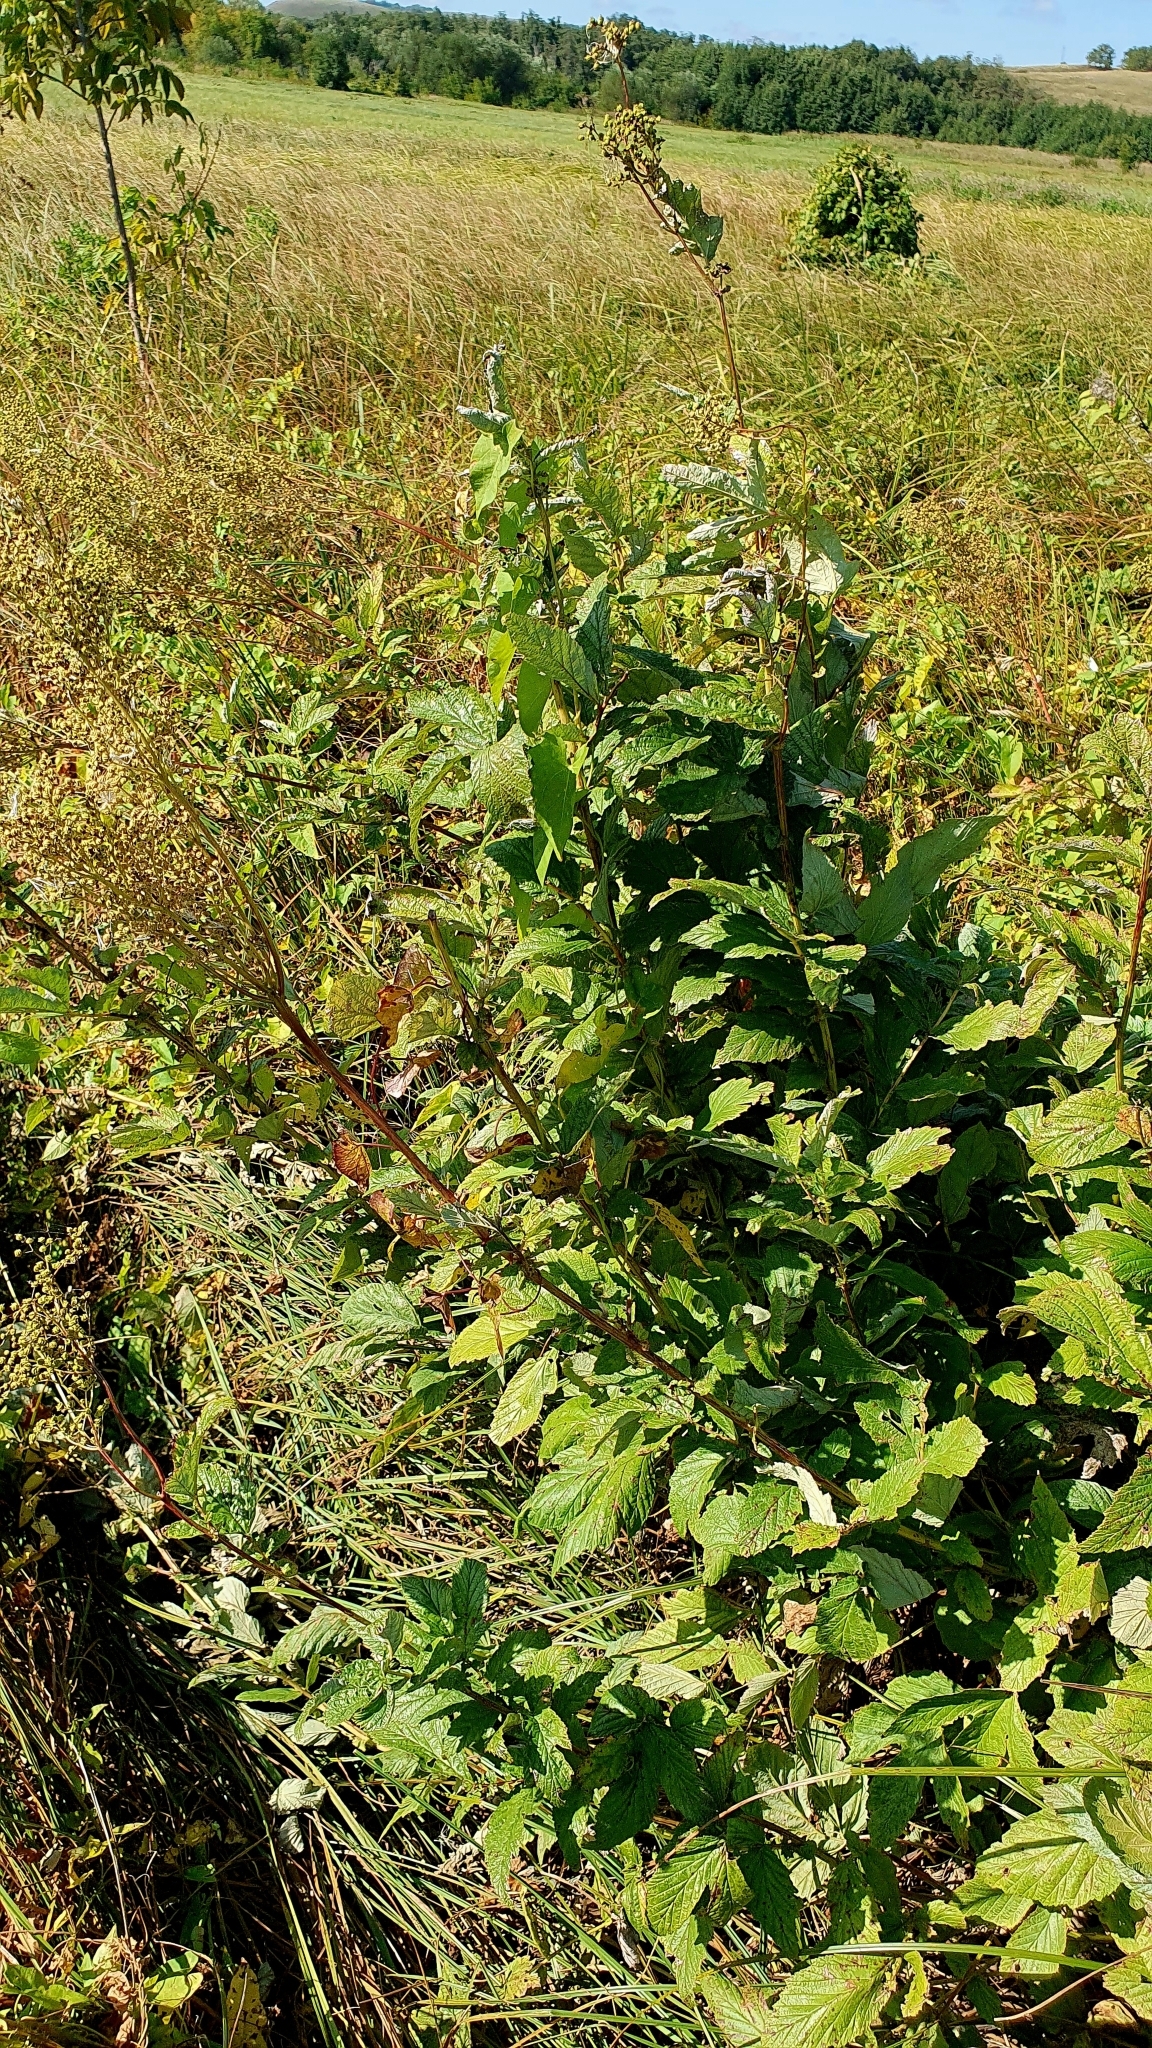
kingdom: Plantae
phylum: Tracheophyta
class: Magnoliopsida
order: Rosales
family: Rosaceae
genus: Filipendula
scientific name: Filipendula ulmaria
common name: Meadowsweet
